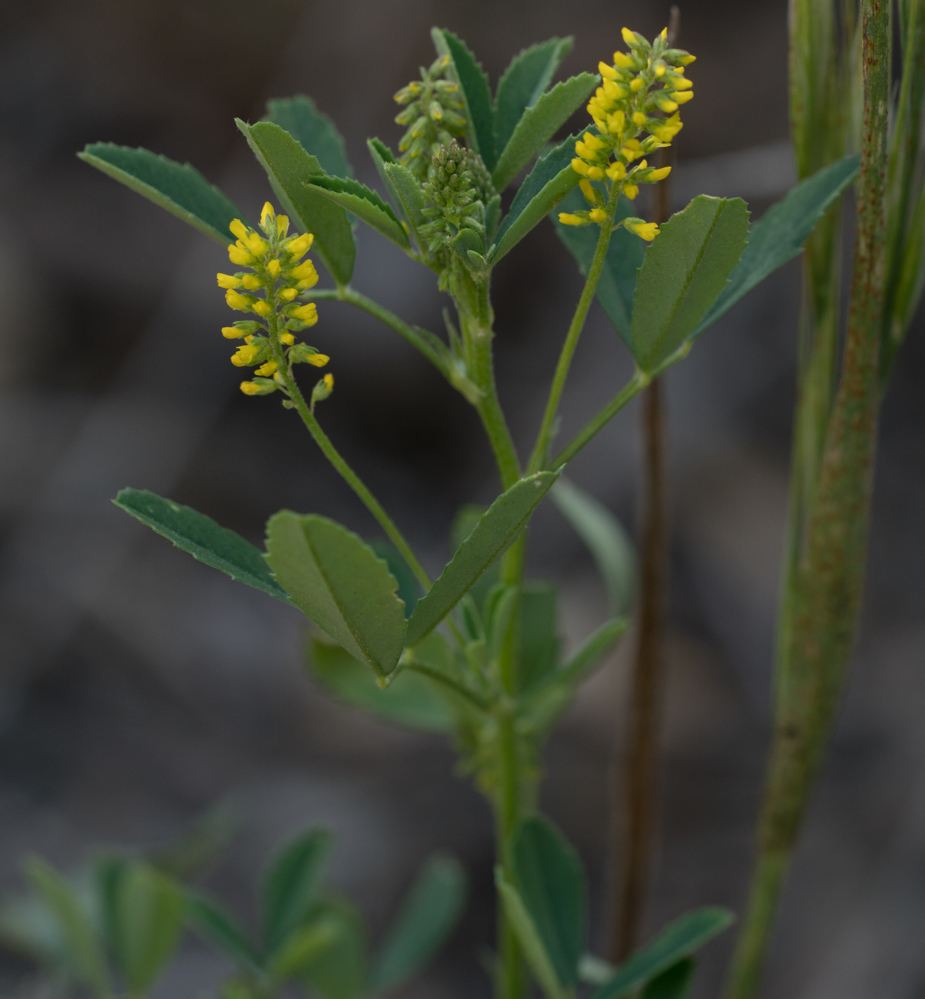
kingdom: Plantae
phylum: Tracheophyta
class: Magnoliopsida
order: Fabales
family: Fabaceae
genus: Melilotus
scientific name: Melilotus indicus
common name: Small melilot
